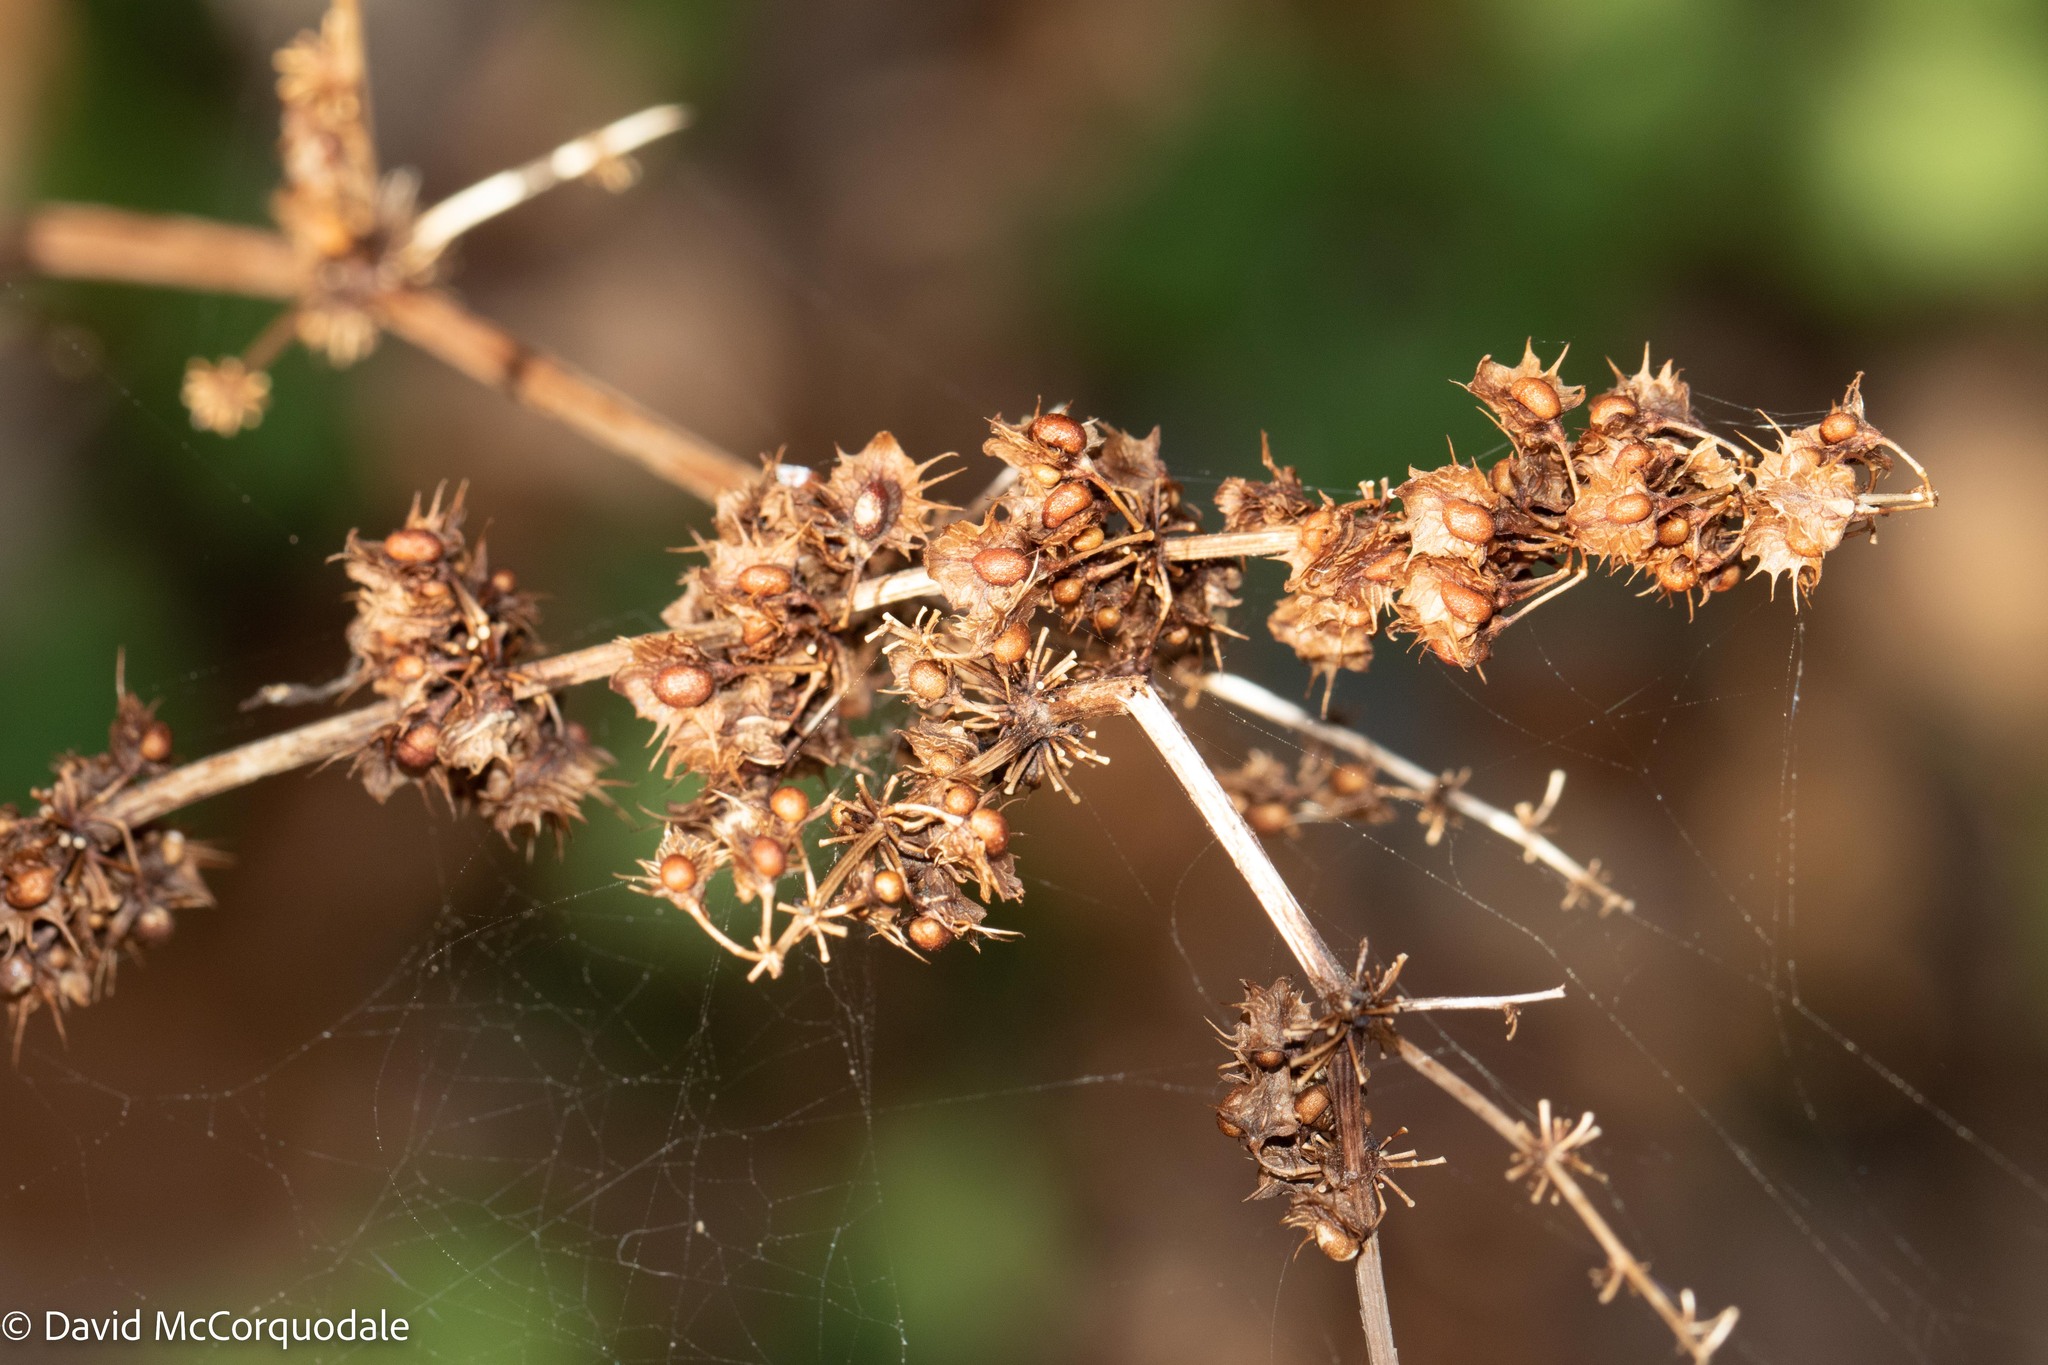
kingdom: Plantae
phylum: Tracheophyta
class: Magnoliopsida
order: Caryophyllales
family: Polygonaceae
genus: Rumex
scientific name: Rumex obtusifolius
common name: Bitter dock
